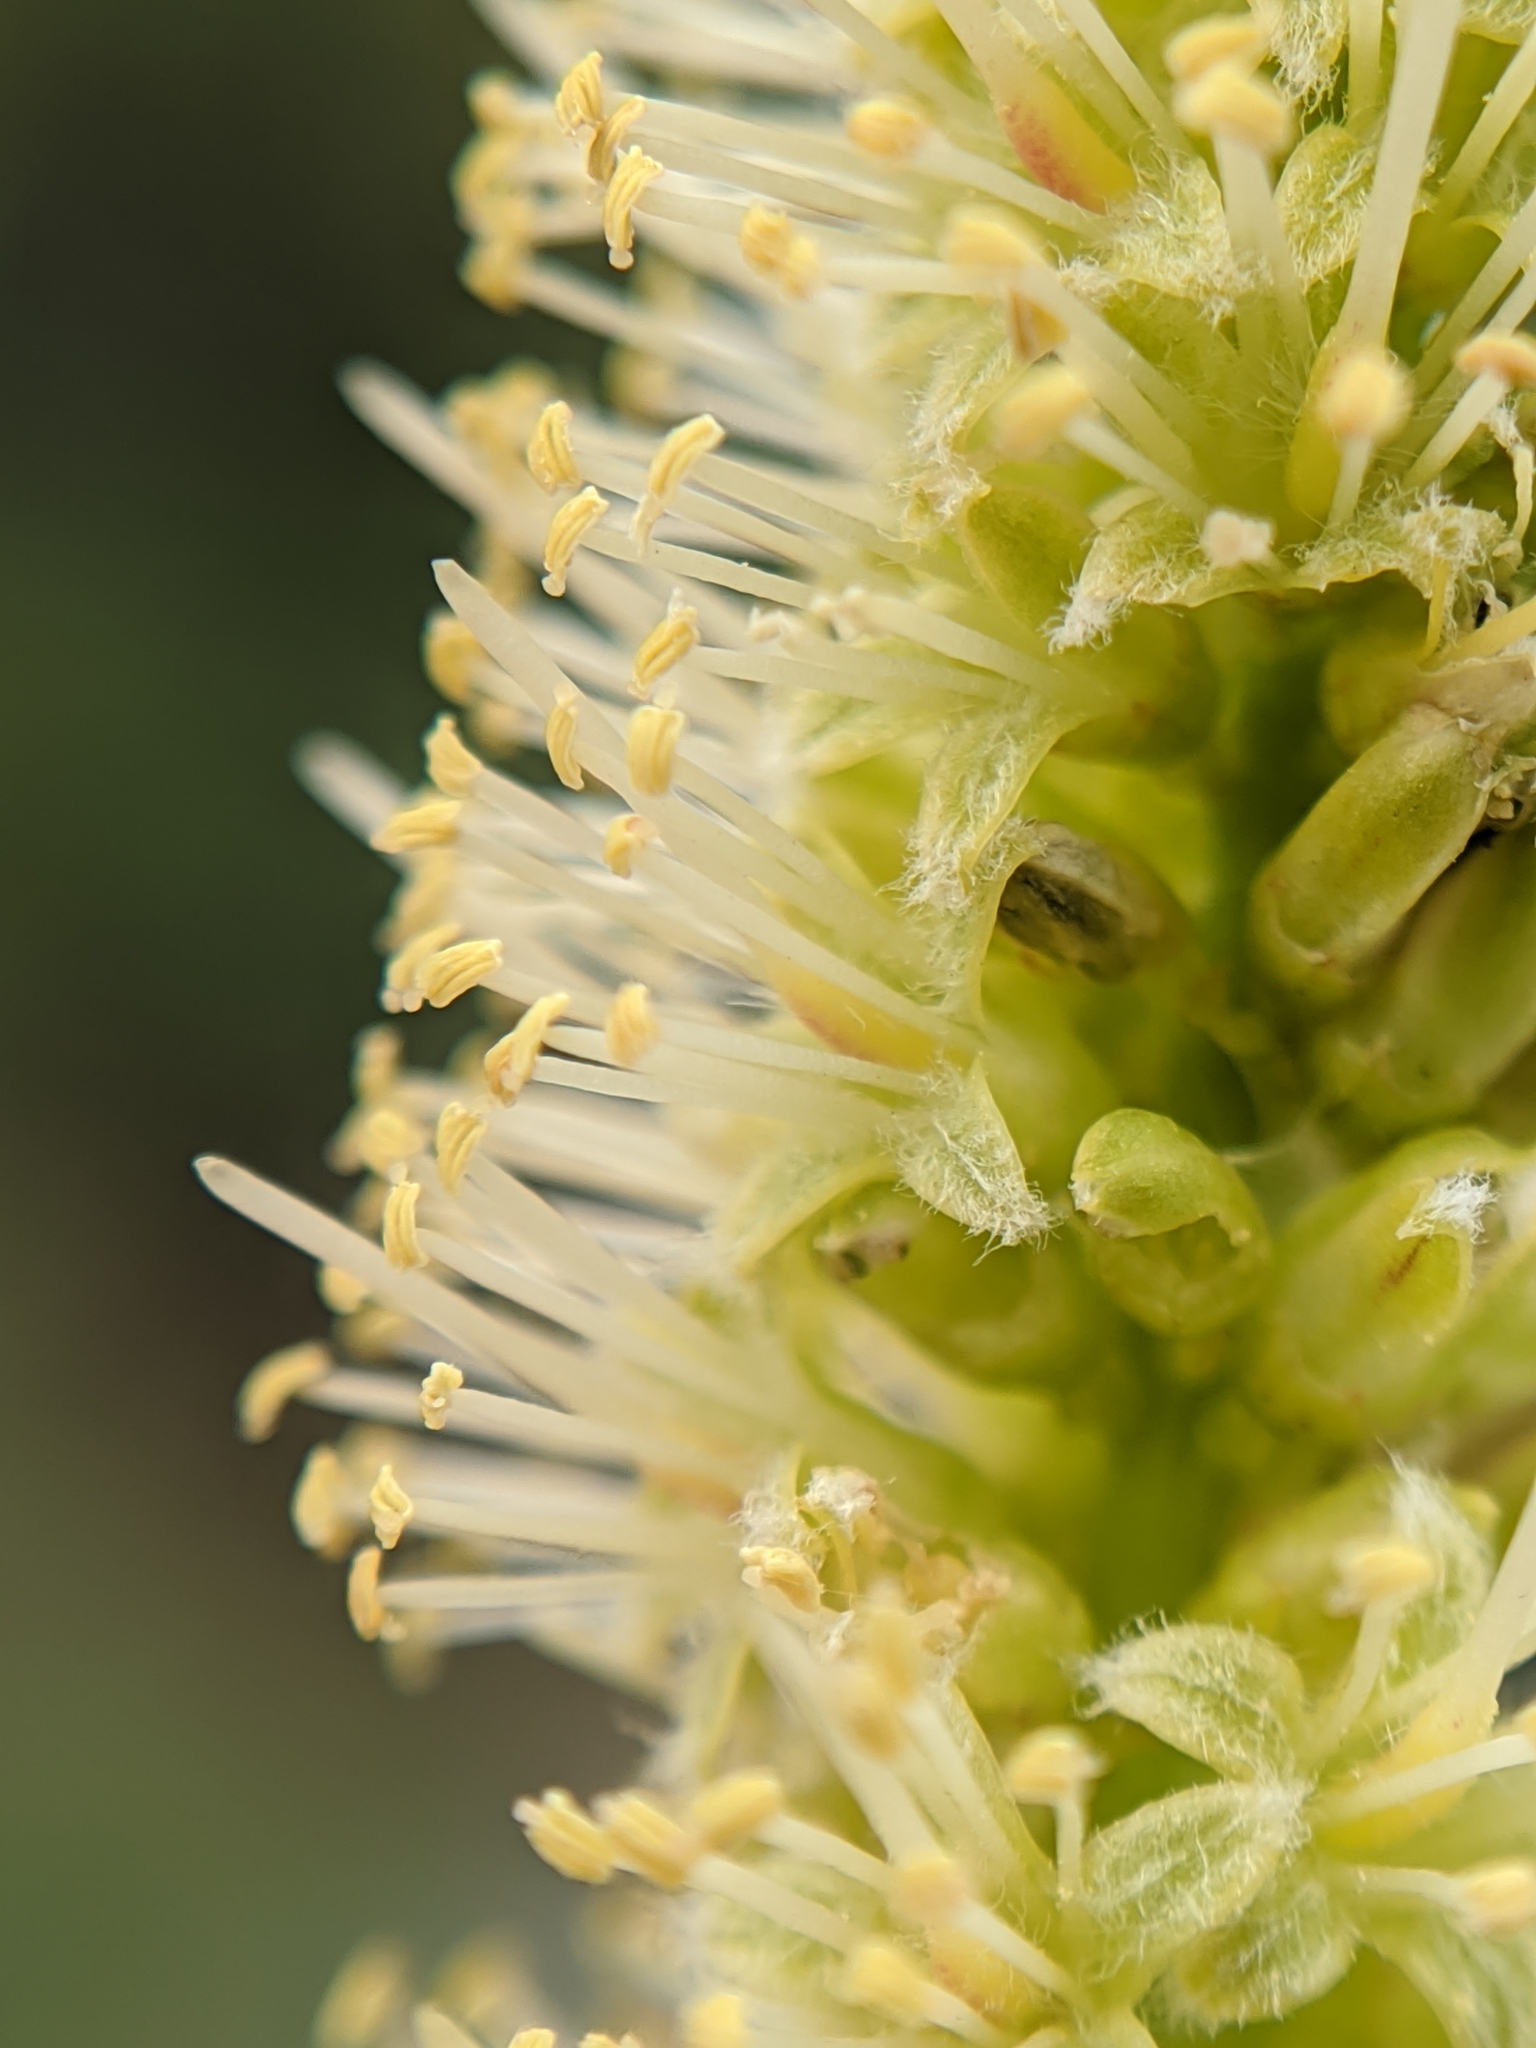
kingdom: Plantae
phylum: Tracheophyta
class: Magnoliopsida
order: Fabales
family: Fabaceae
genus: Prosopis
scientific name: Prosopis glandulosa
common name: Honey mesquite
